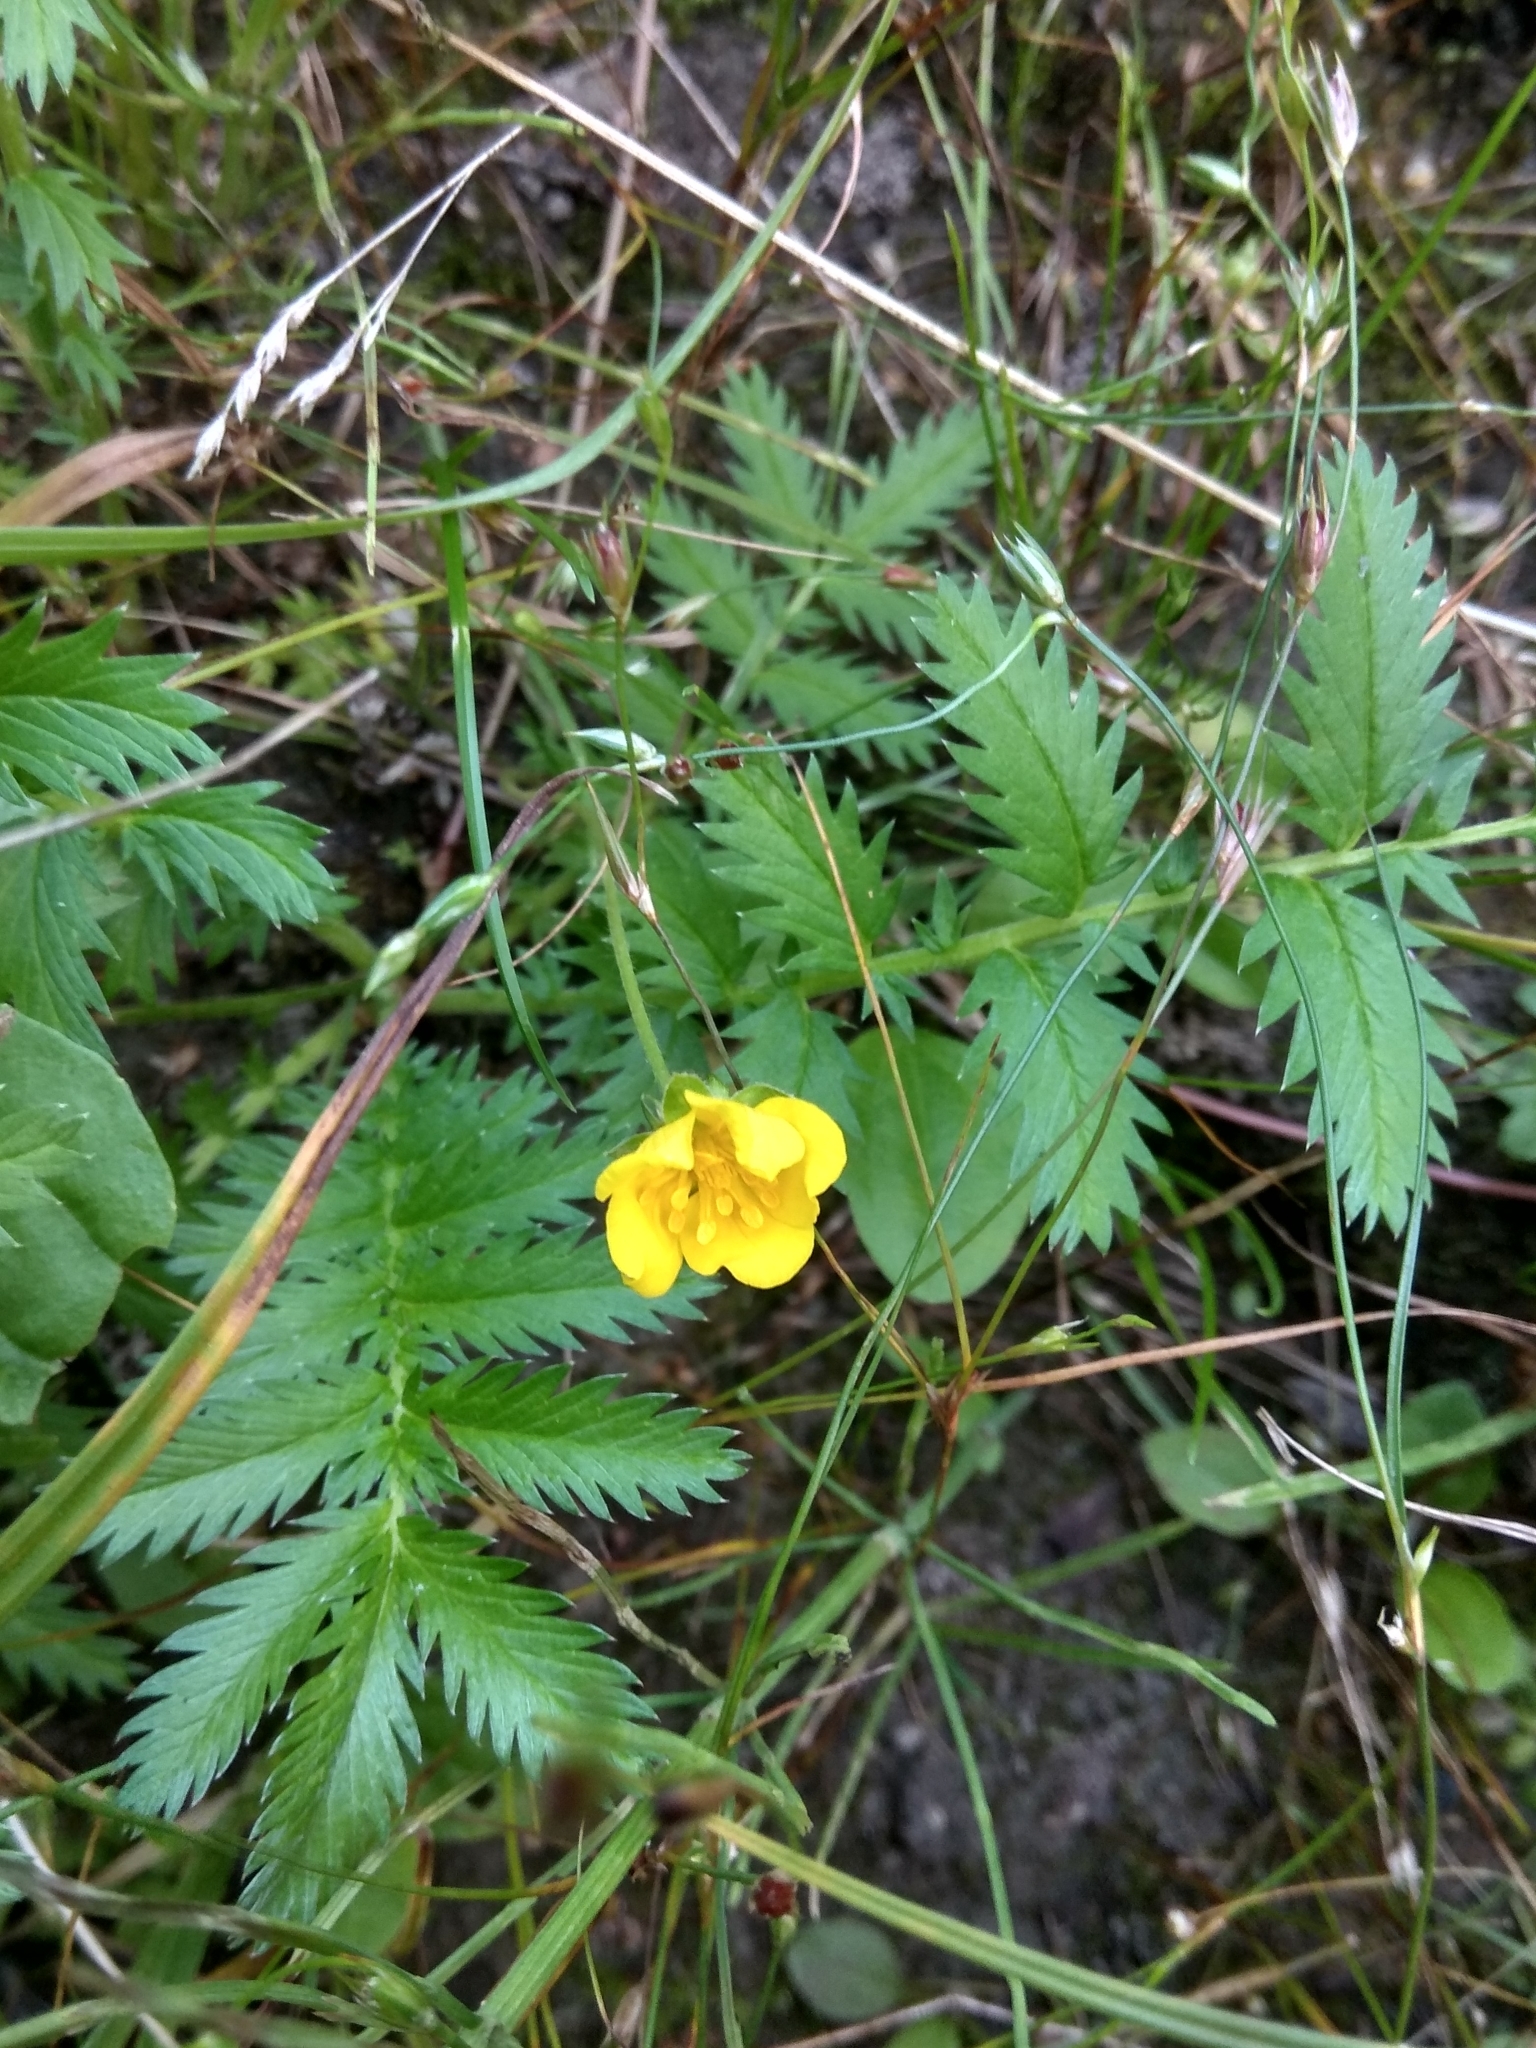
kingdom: Plantae
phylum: Tracheophyta
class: Magnoliopsida
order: Rosales
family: Rosaceae
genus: Argentina
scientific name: Argentina anserina
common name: Common silverweed
